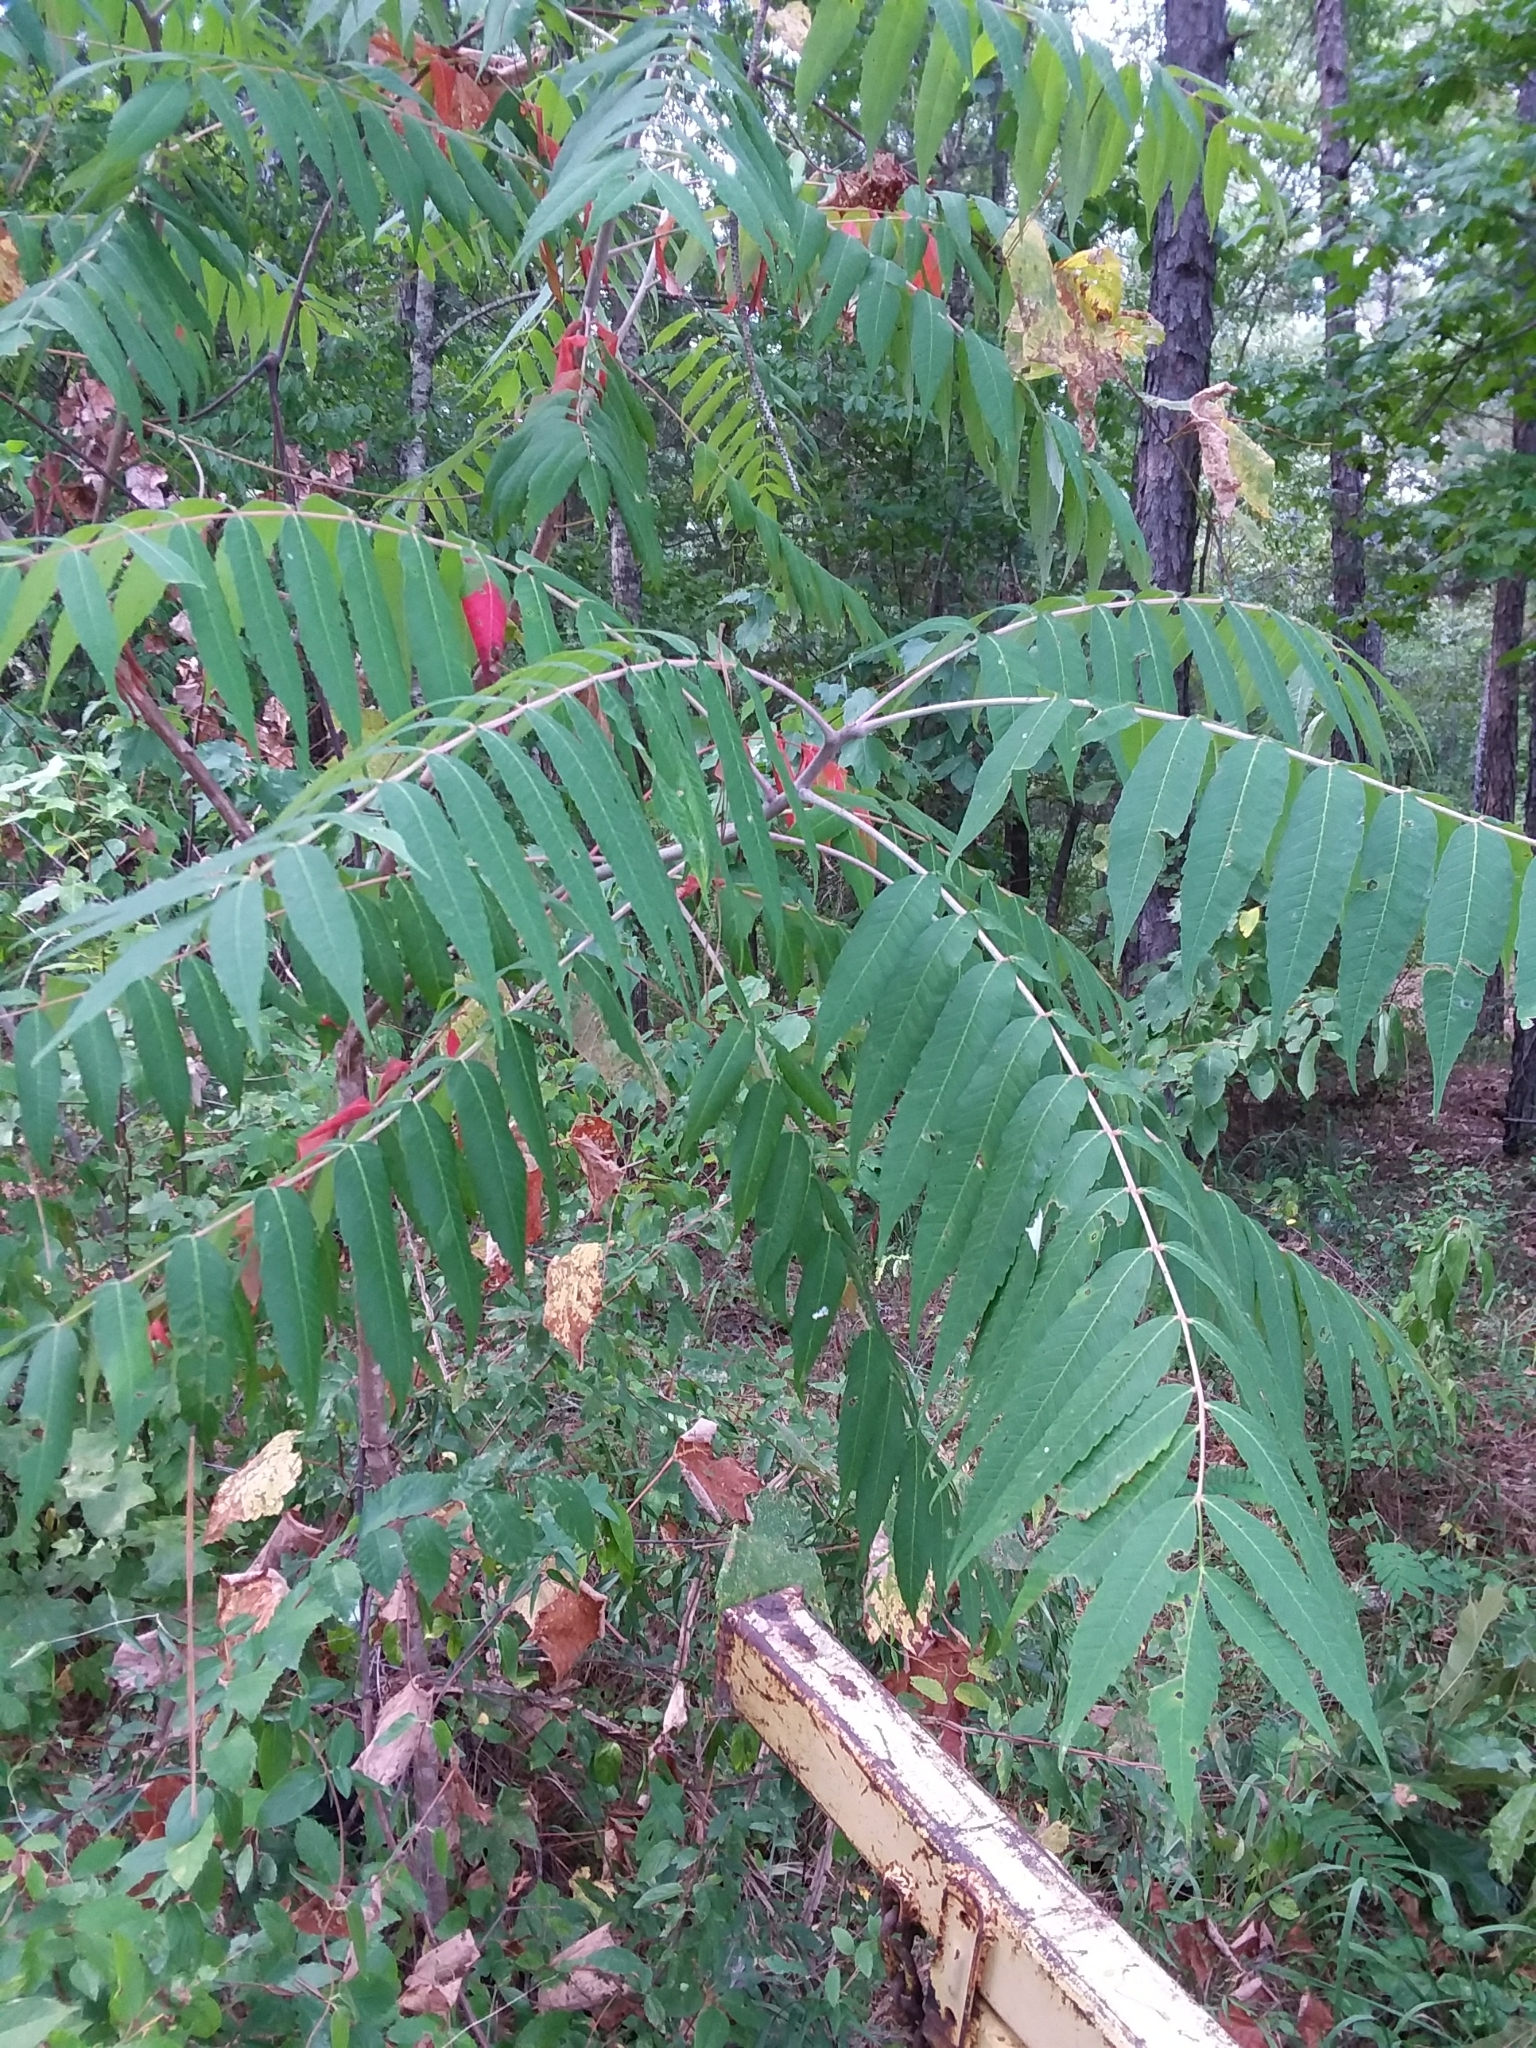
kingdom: Plantae
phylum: Tracheophyta
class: Magnoliopsida
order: Sapindales
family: Anacardiaceae
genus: Rhus
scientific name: Rhus glabra
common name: Scarlet sumac
